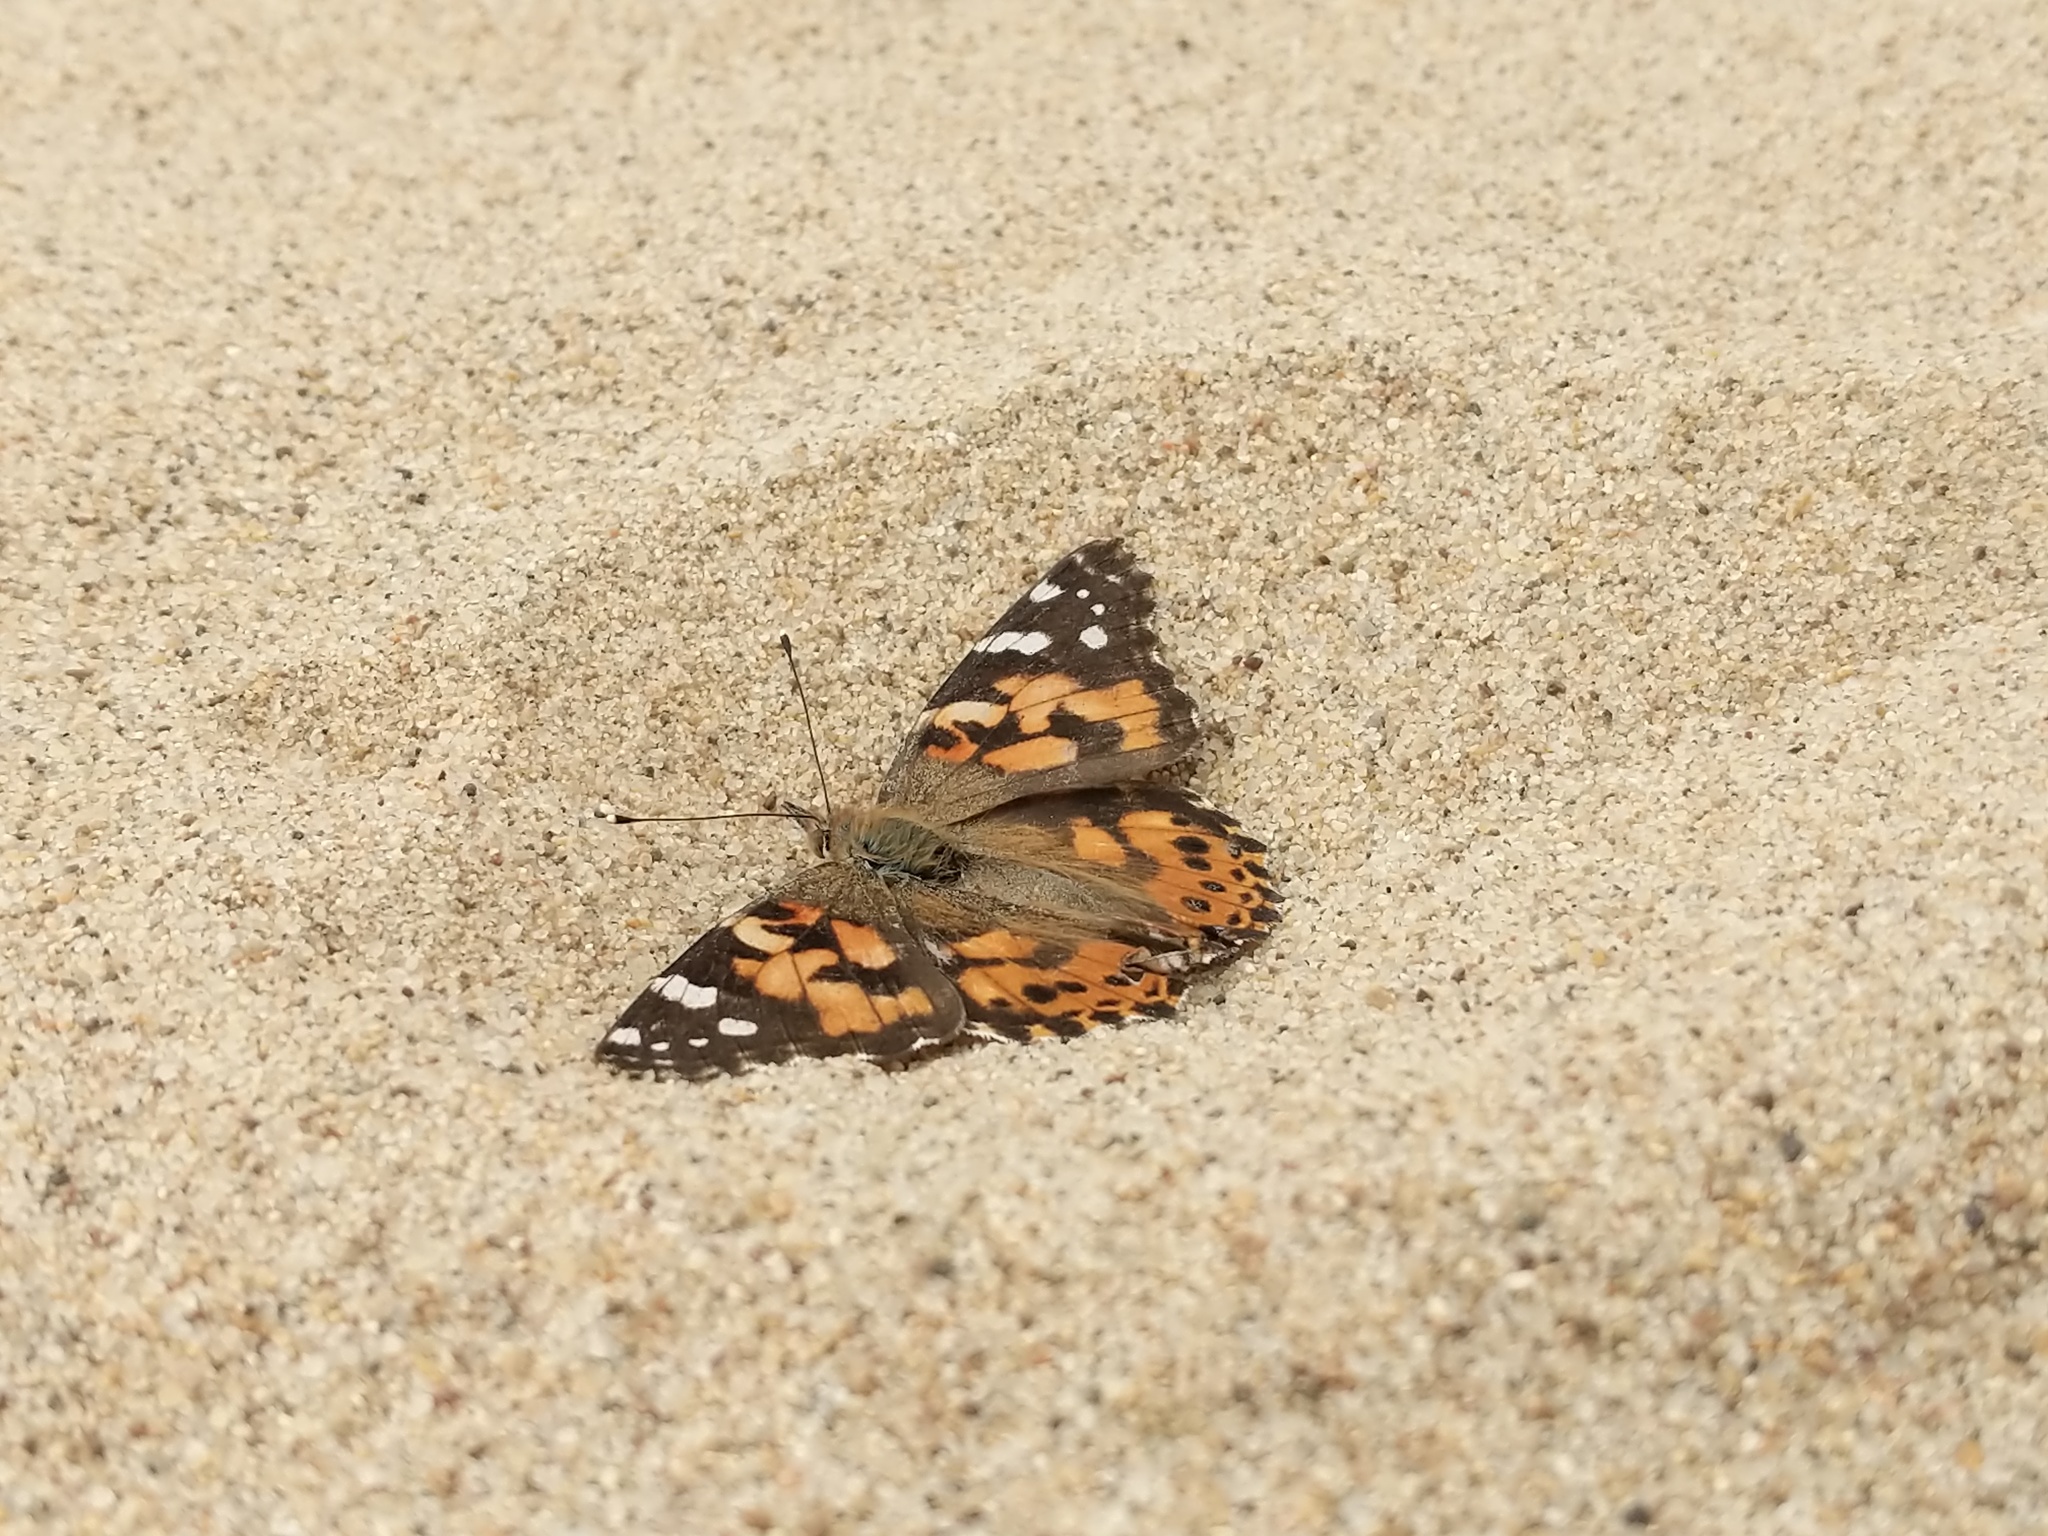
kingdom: Animalia
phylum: Arthropoda
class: Insecta
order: Lepidoptera
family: Nymphalidae
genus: Vanessa
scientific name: Vanessa cardui
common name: Painted lady
